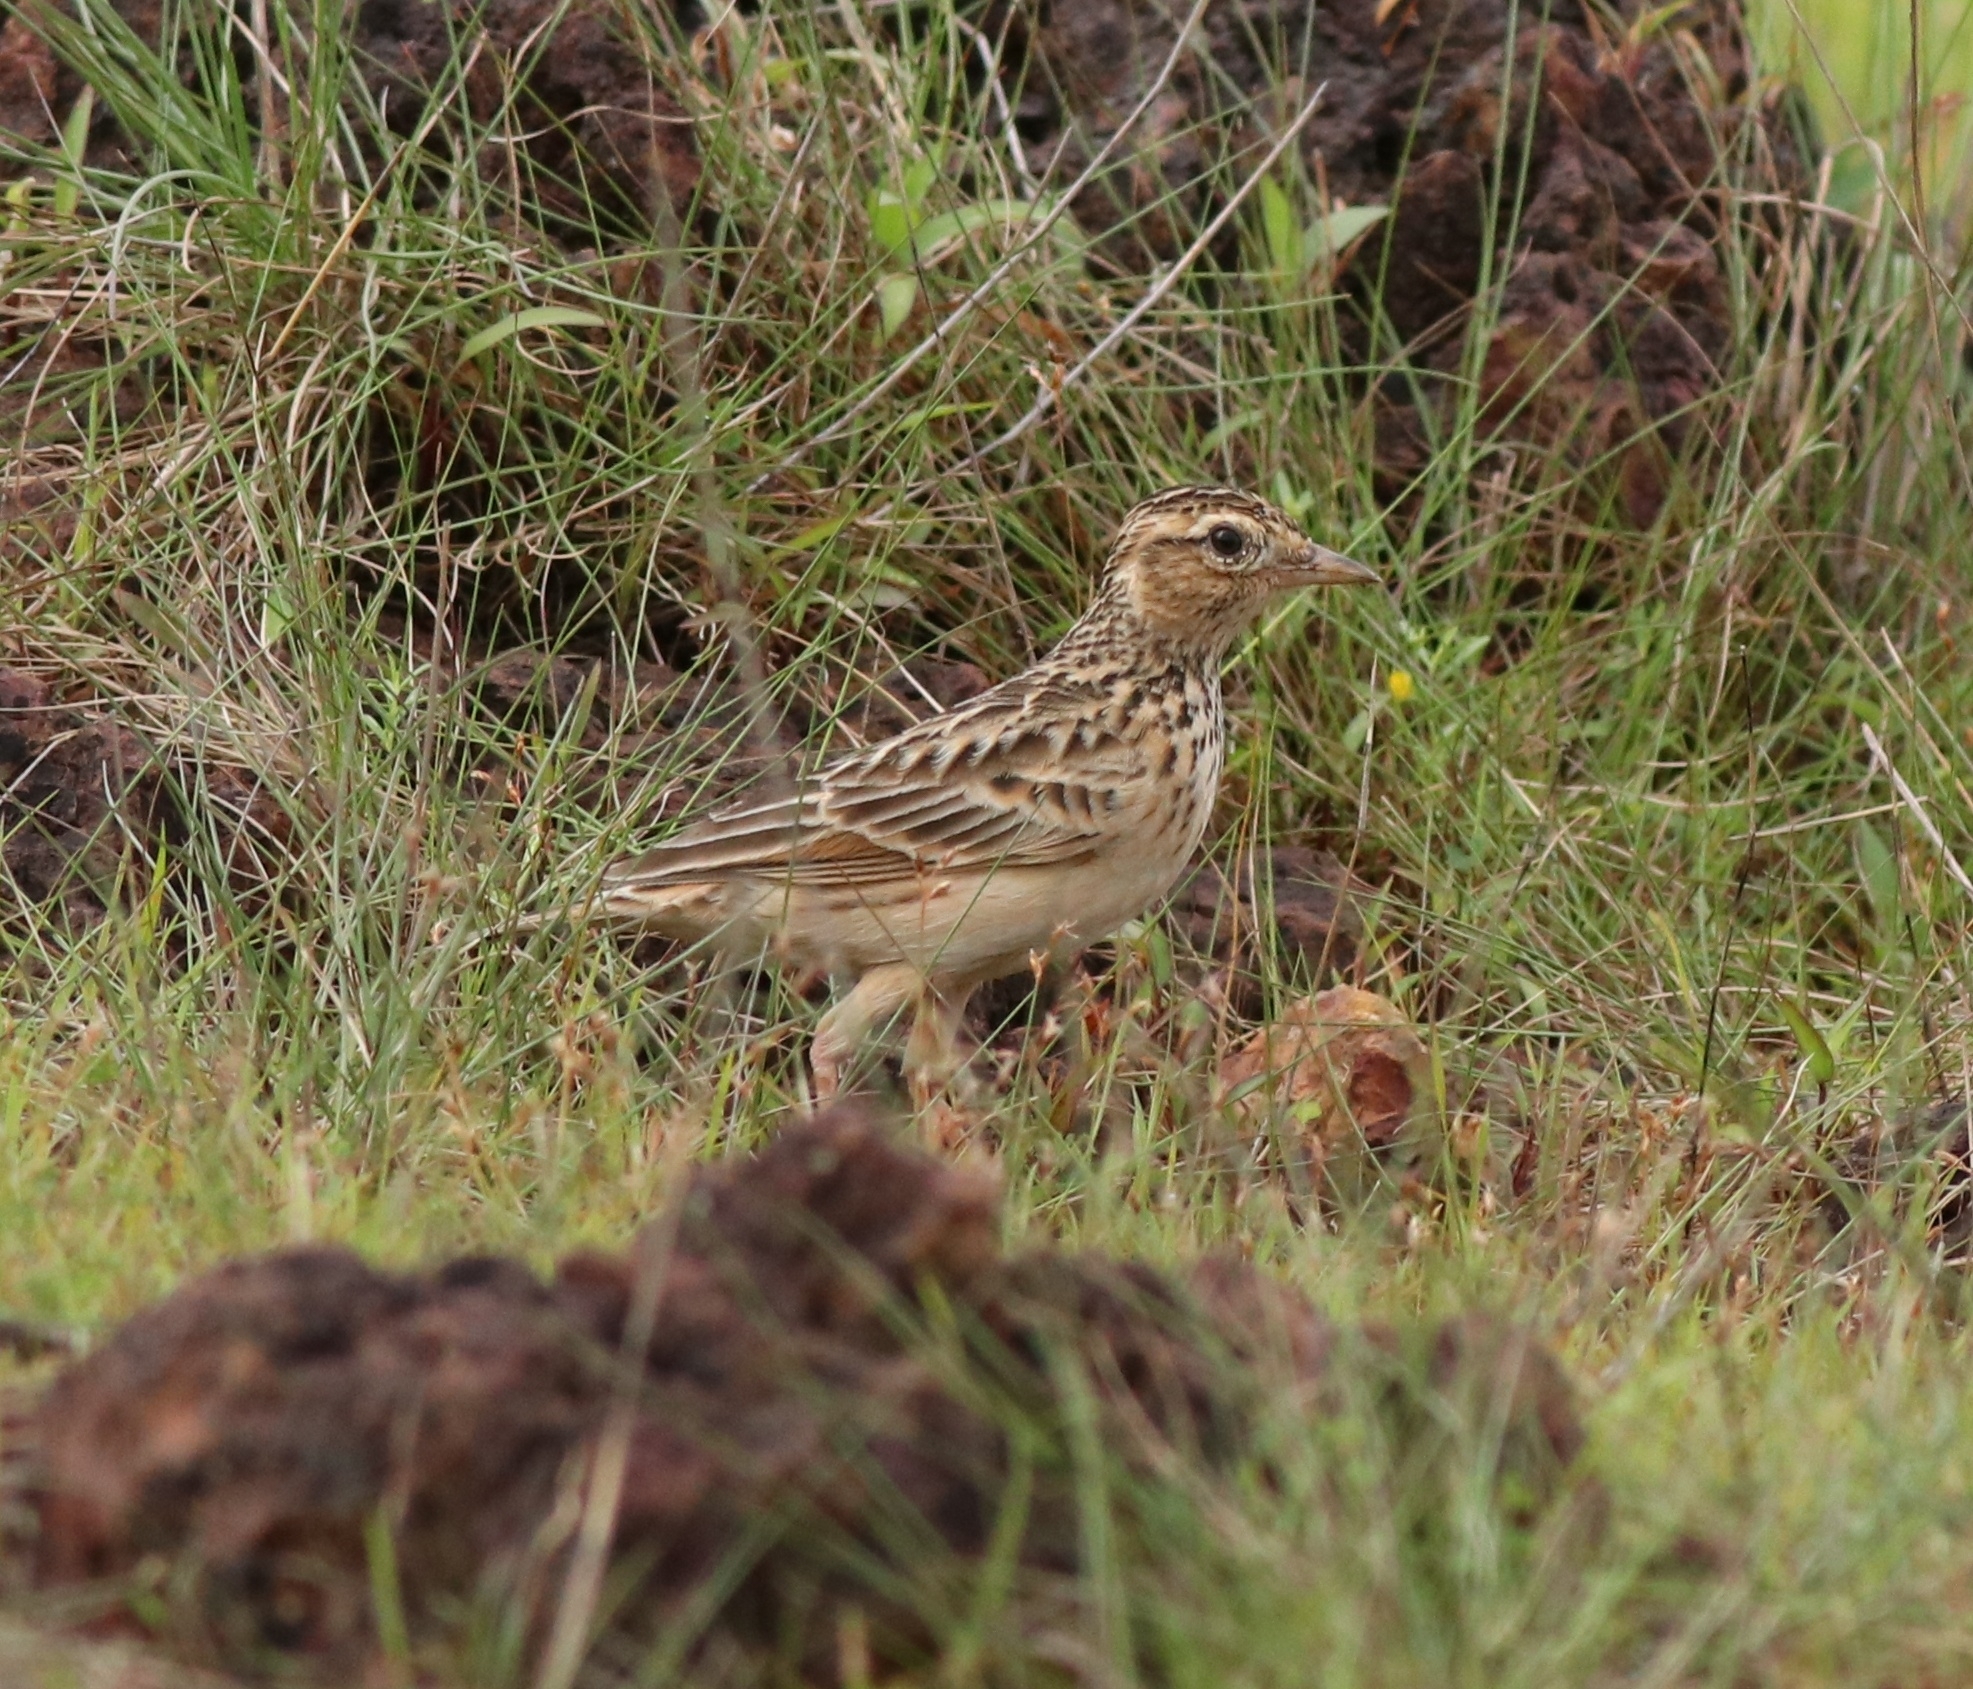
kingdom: Animalia
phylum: Chordata
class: Aves
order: Passeriformes
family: Alaudidae
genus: Alauda
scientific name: Alauda gulgula
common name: Oriental skylark
